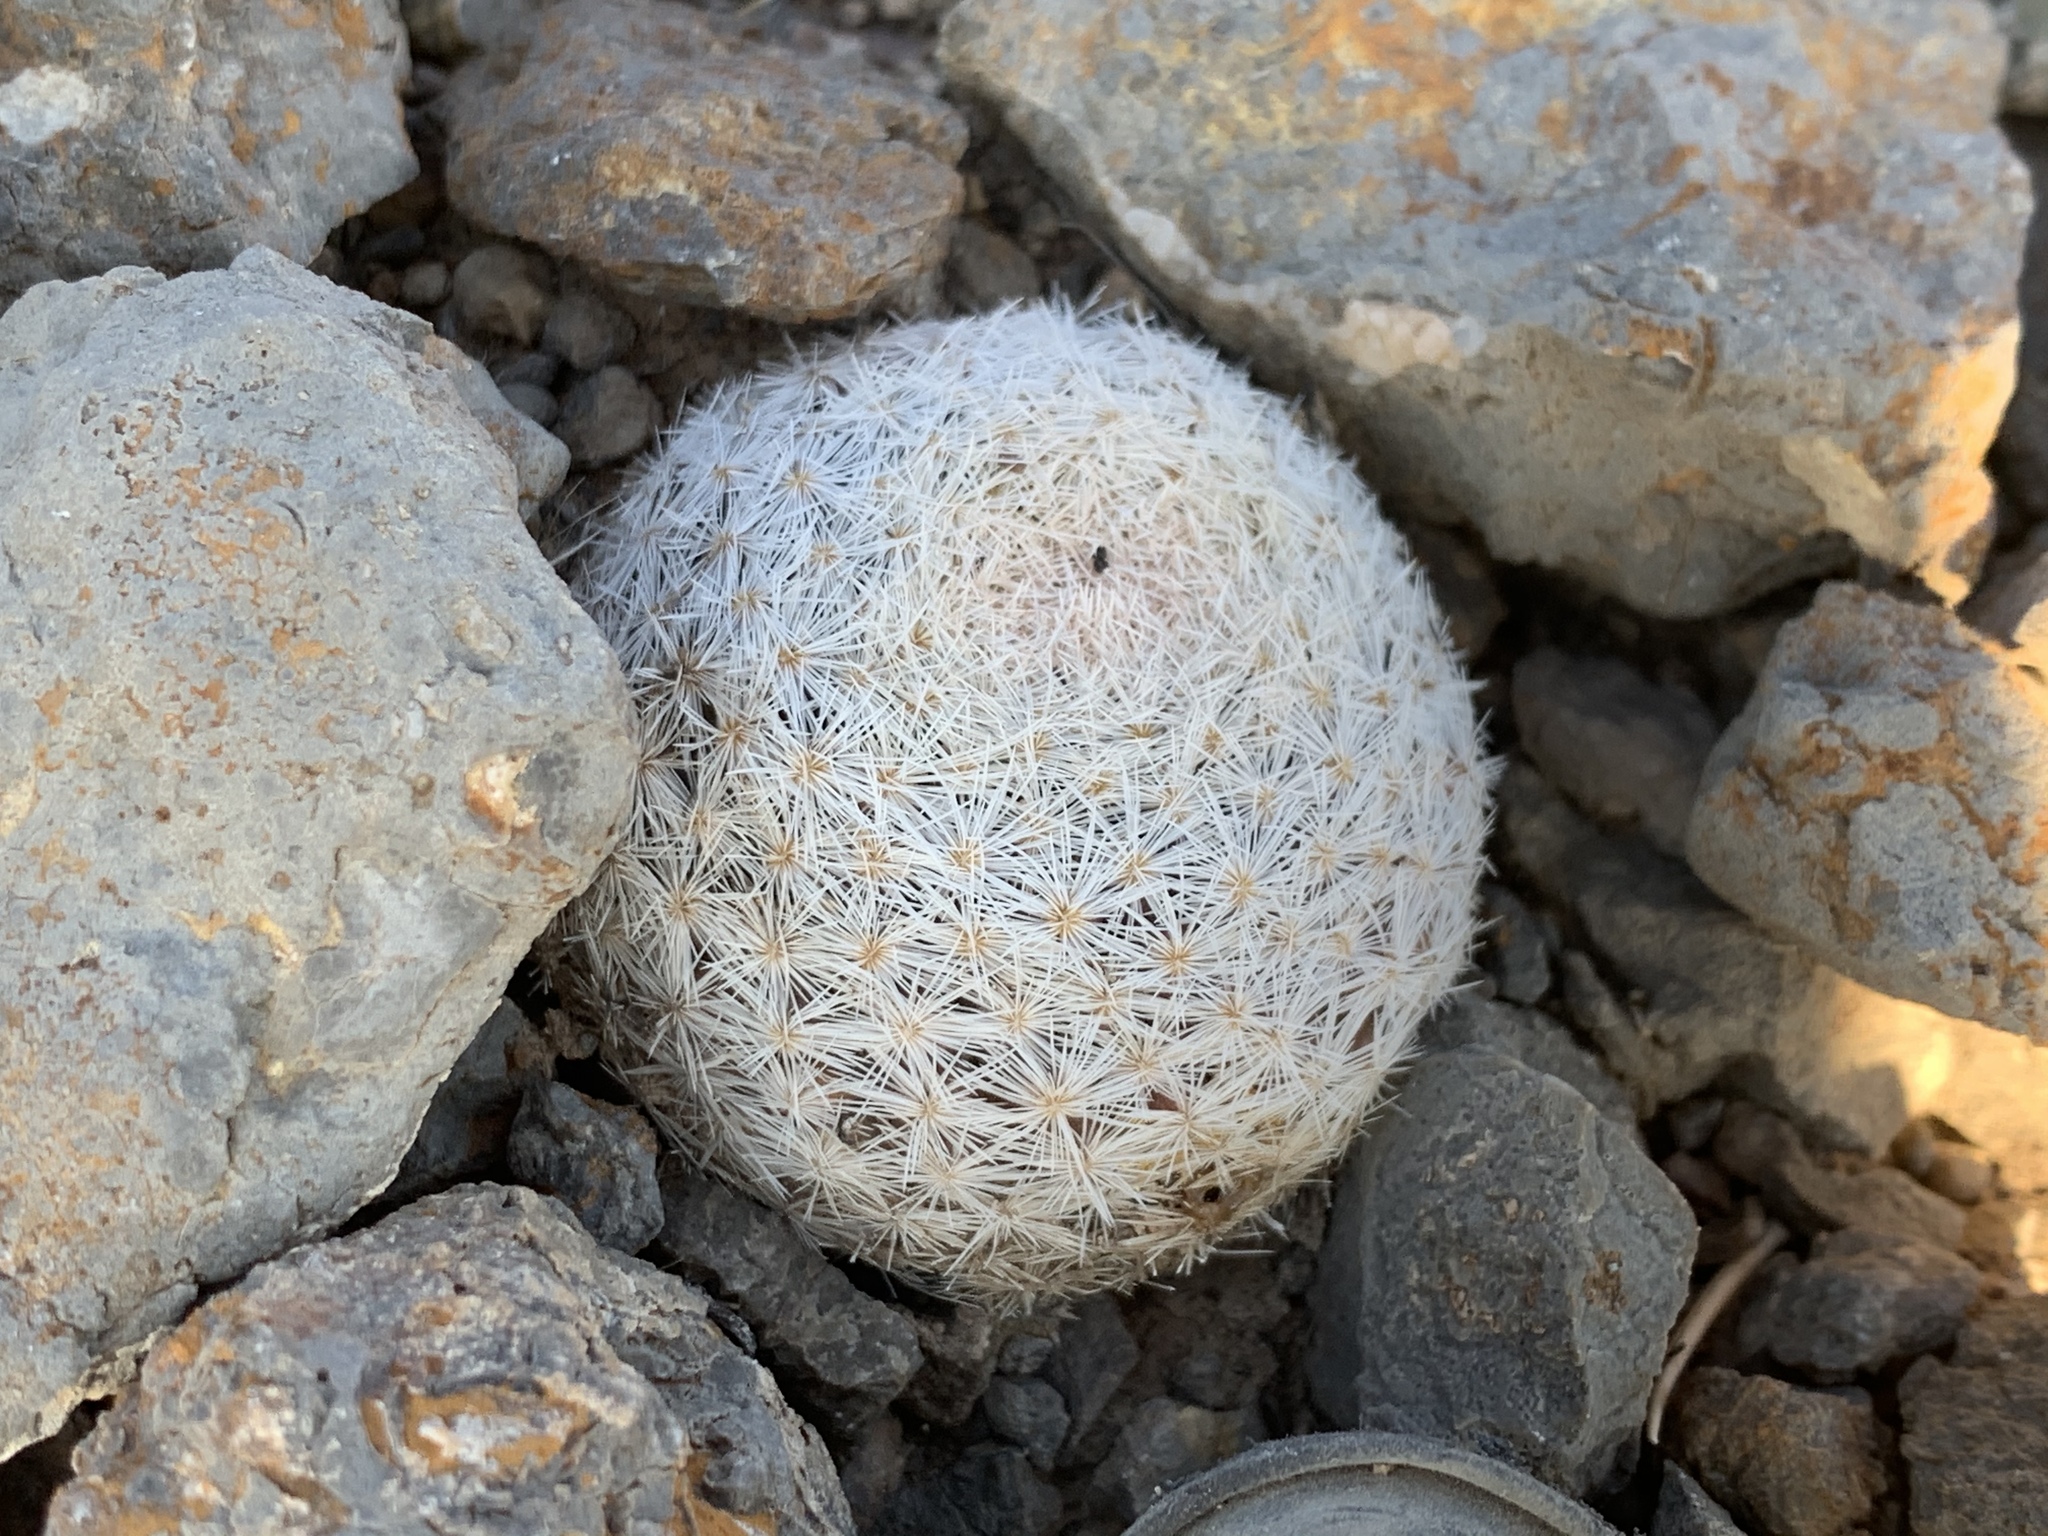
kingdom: Plantae
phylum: Tracheophyta
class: Magnoliopsida
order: Caryophyllales
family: Cactaceae
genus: Mammillaria
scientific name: Mammillaria lasiacantha
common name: Lace-spine nipple cactus
